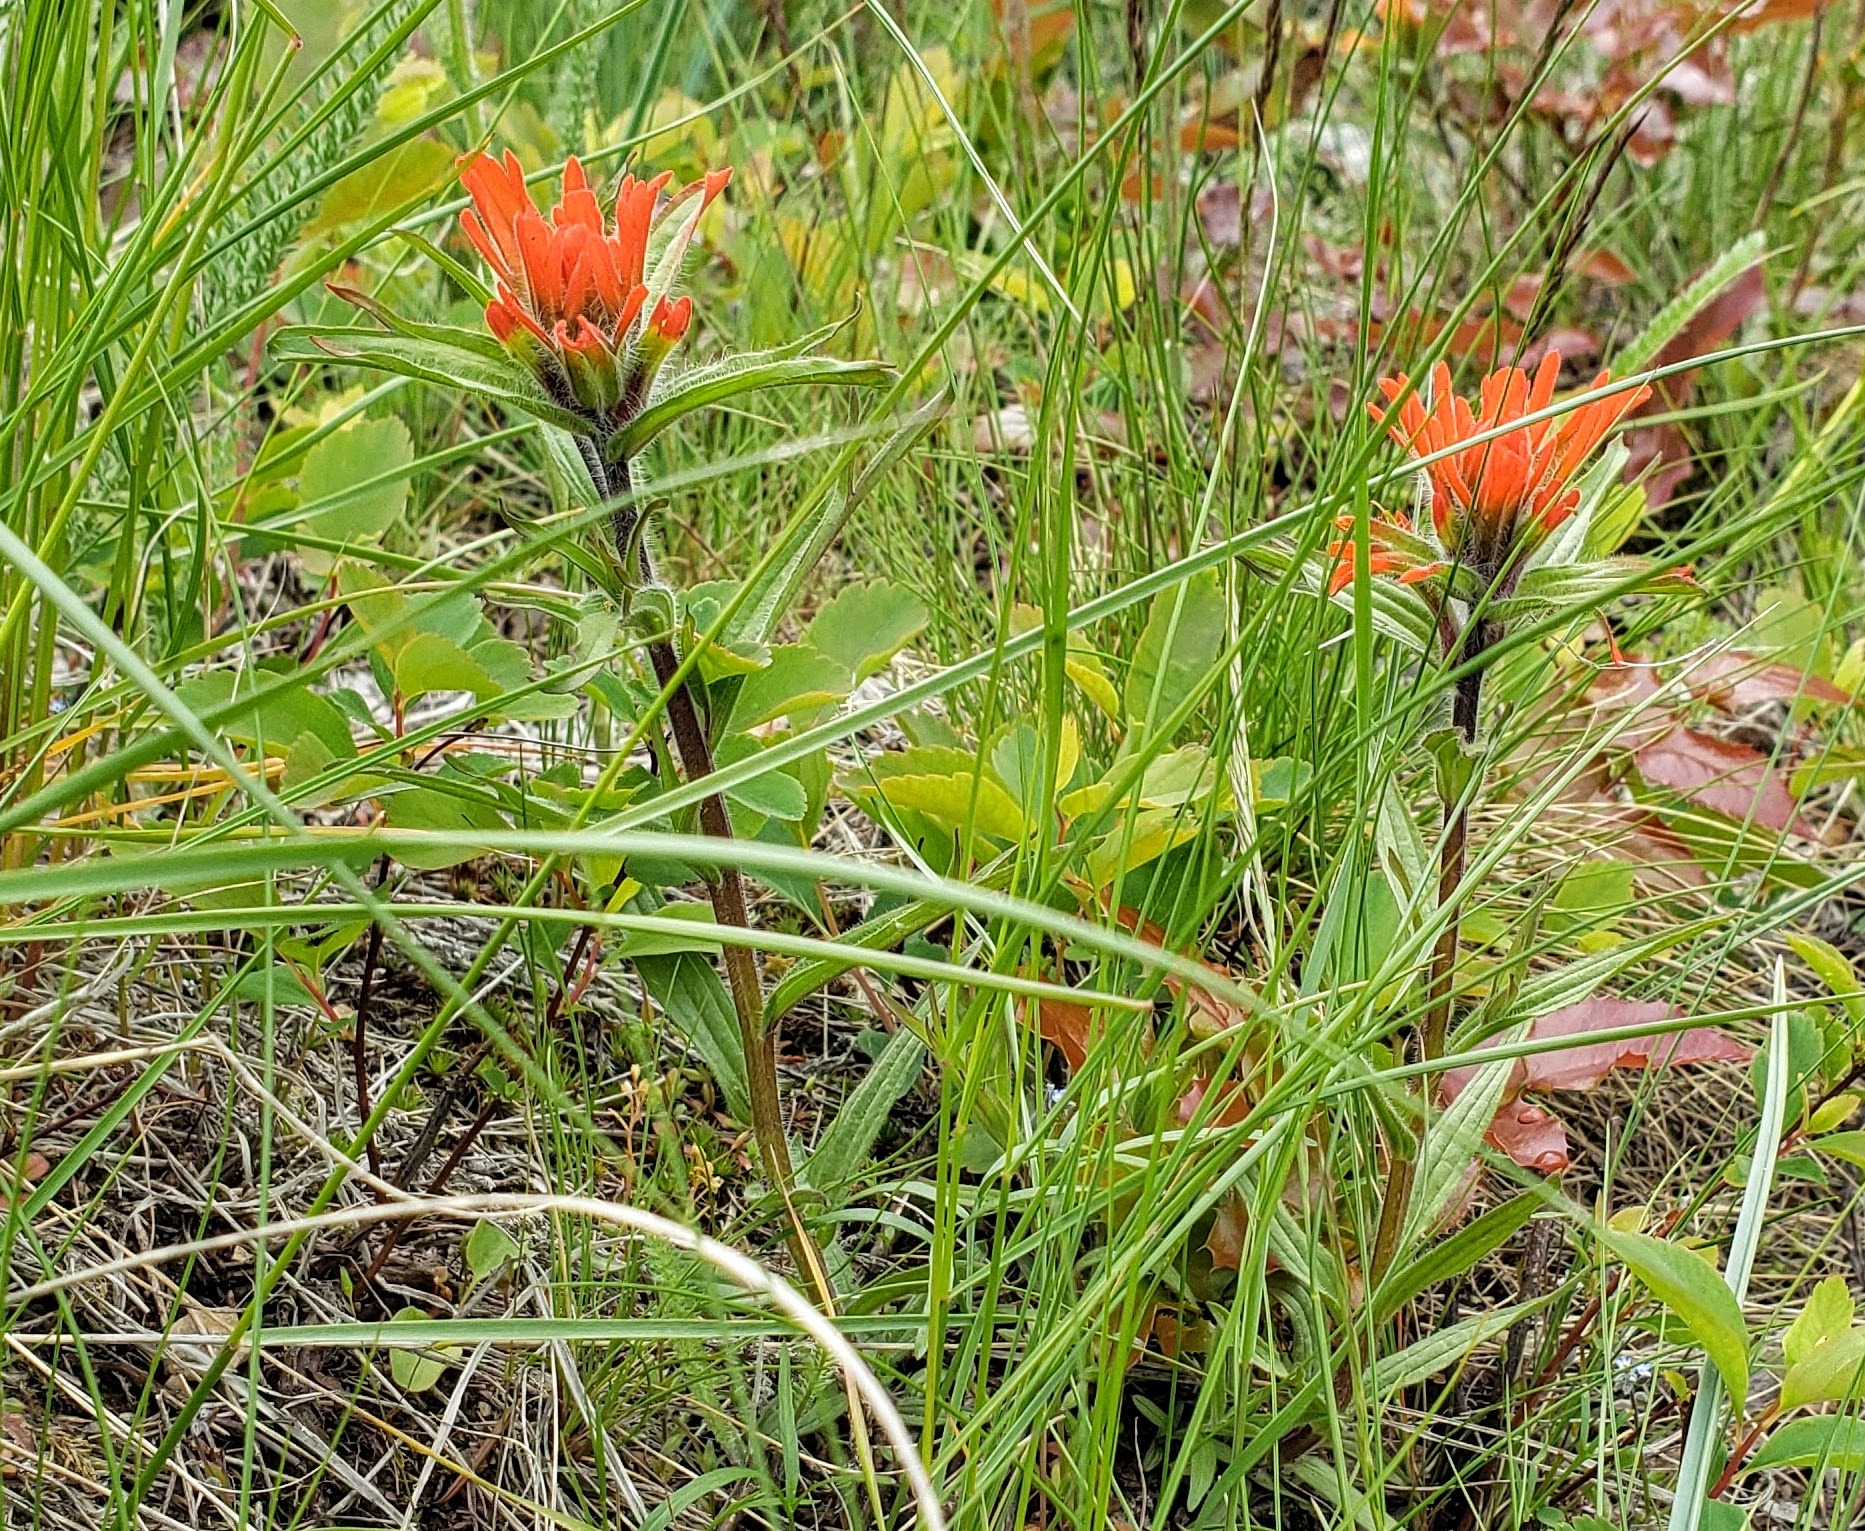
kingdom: Plantae
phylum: Tracheophyta
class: Magnoliopsida
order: Lamiales
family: Orobanchaceae
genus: Castilleja
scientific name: Castilleja hispida
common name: Bristly paintbrush
